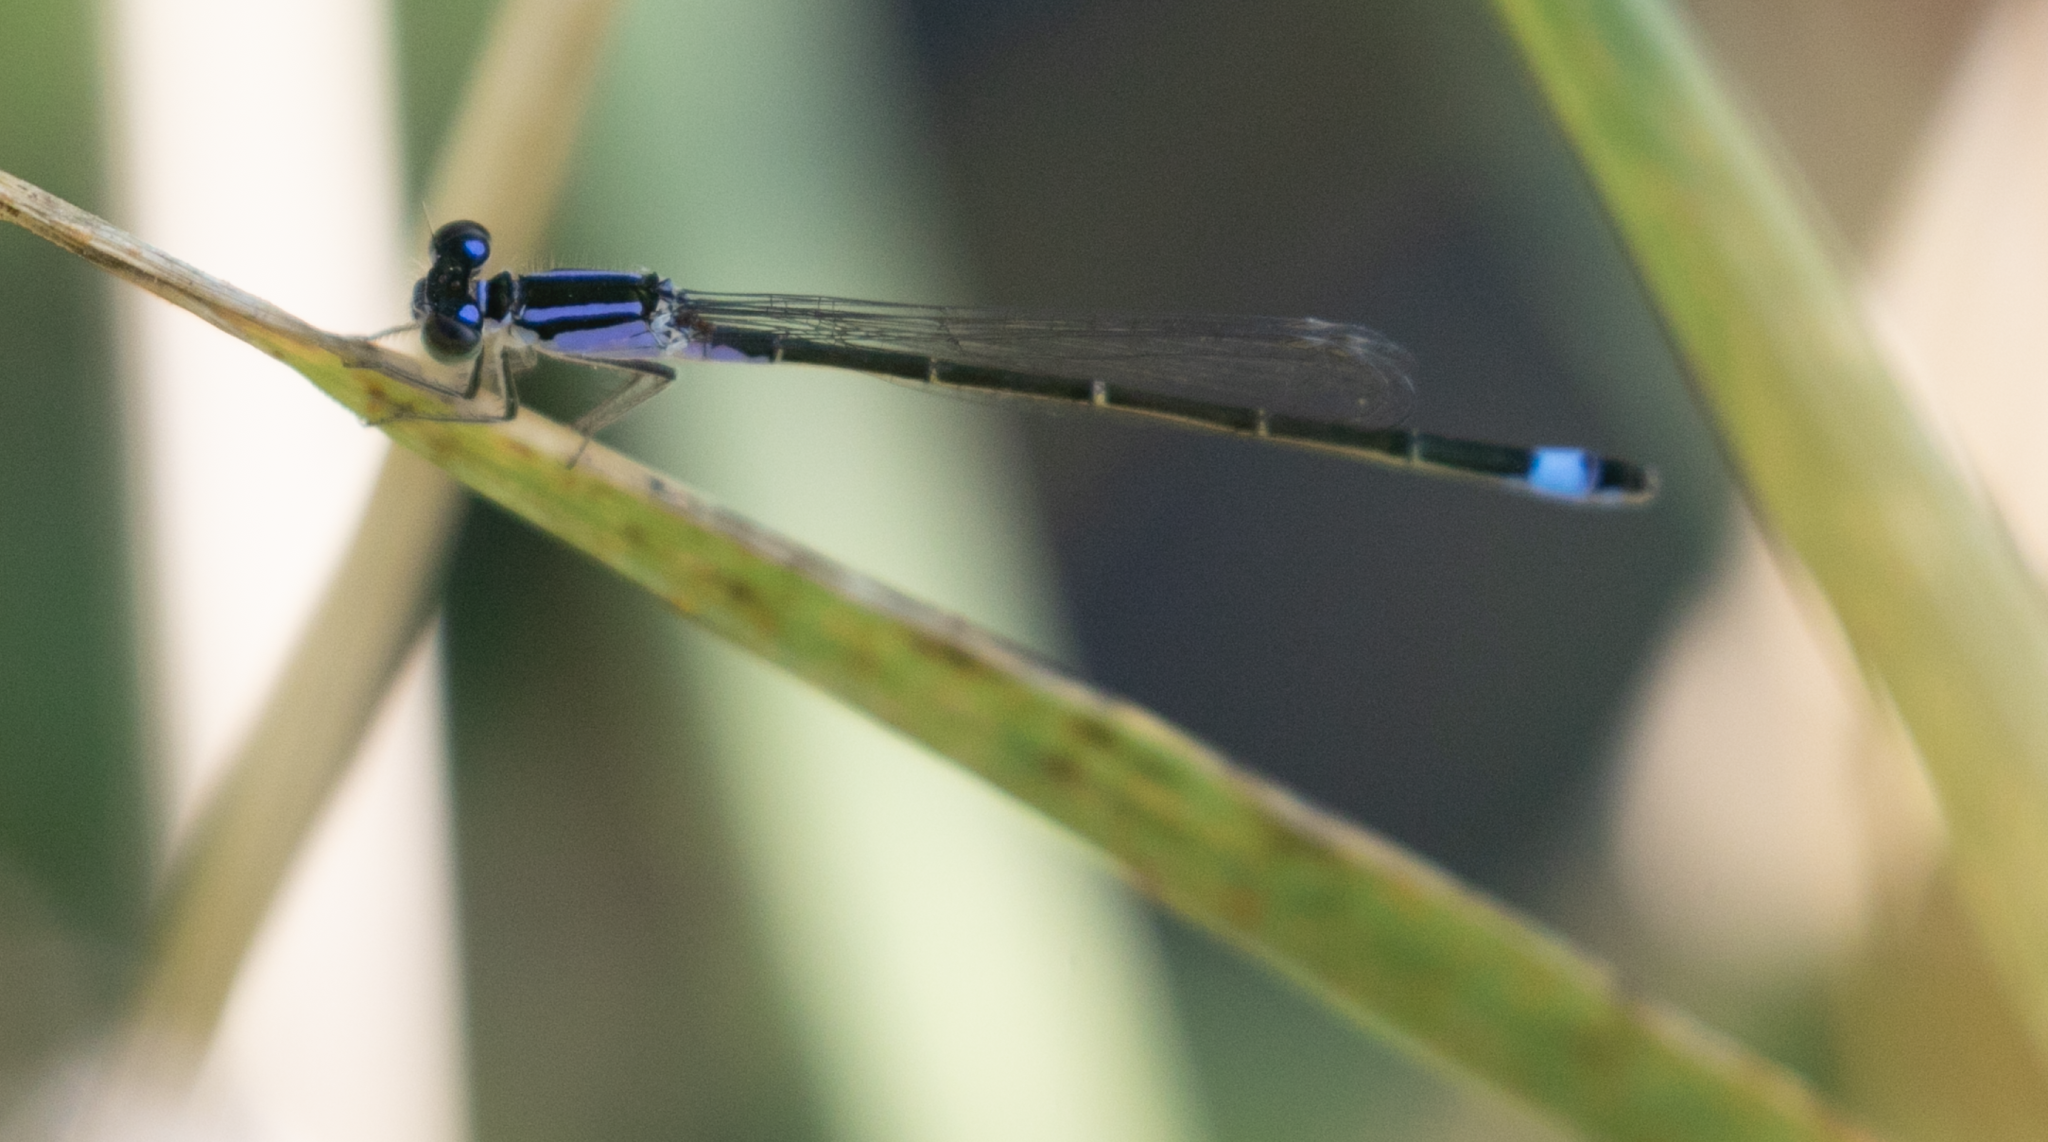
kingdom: Animalia
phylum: Arthropoda
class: Insecta
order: Odonata
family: Coenagrionidae
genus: Ischnura
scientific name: Ischnura elegans
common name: Blue-tailed damselfly
